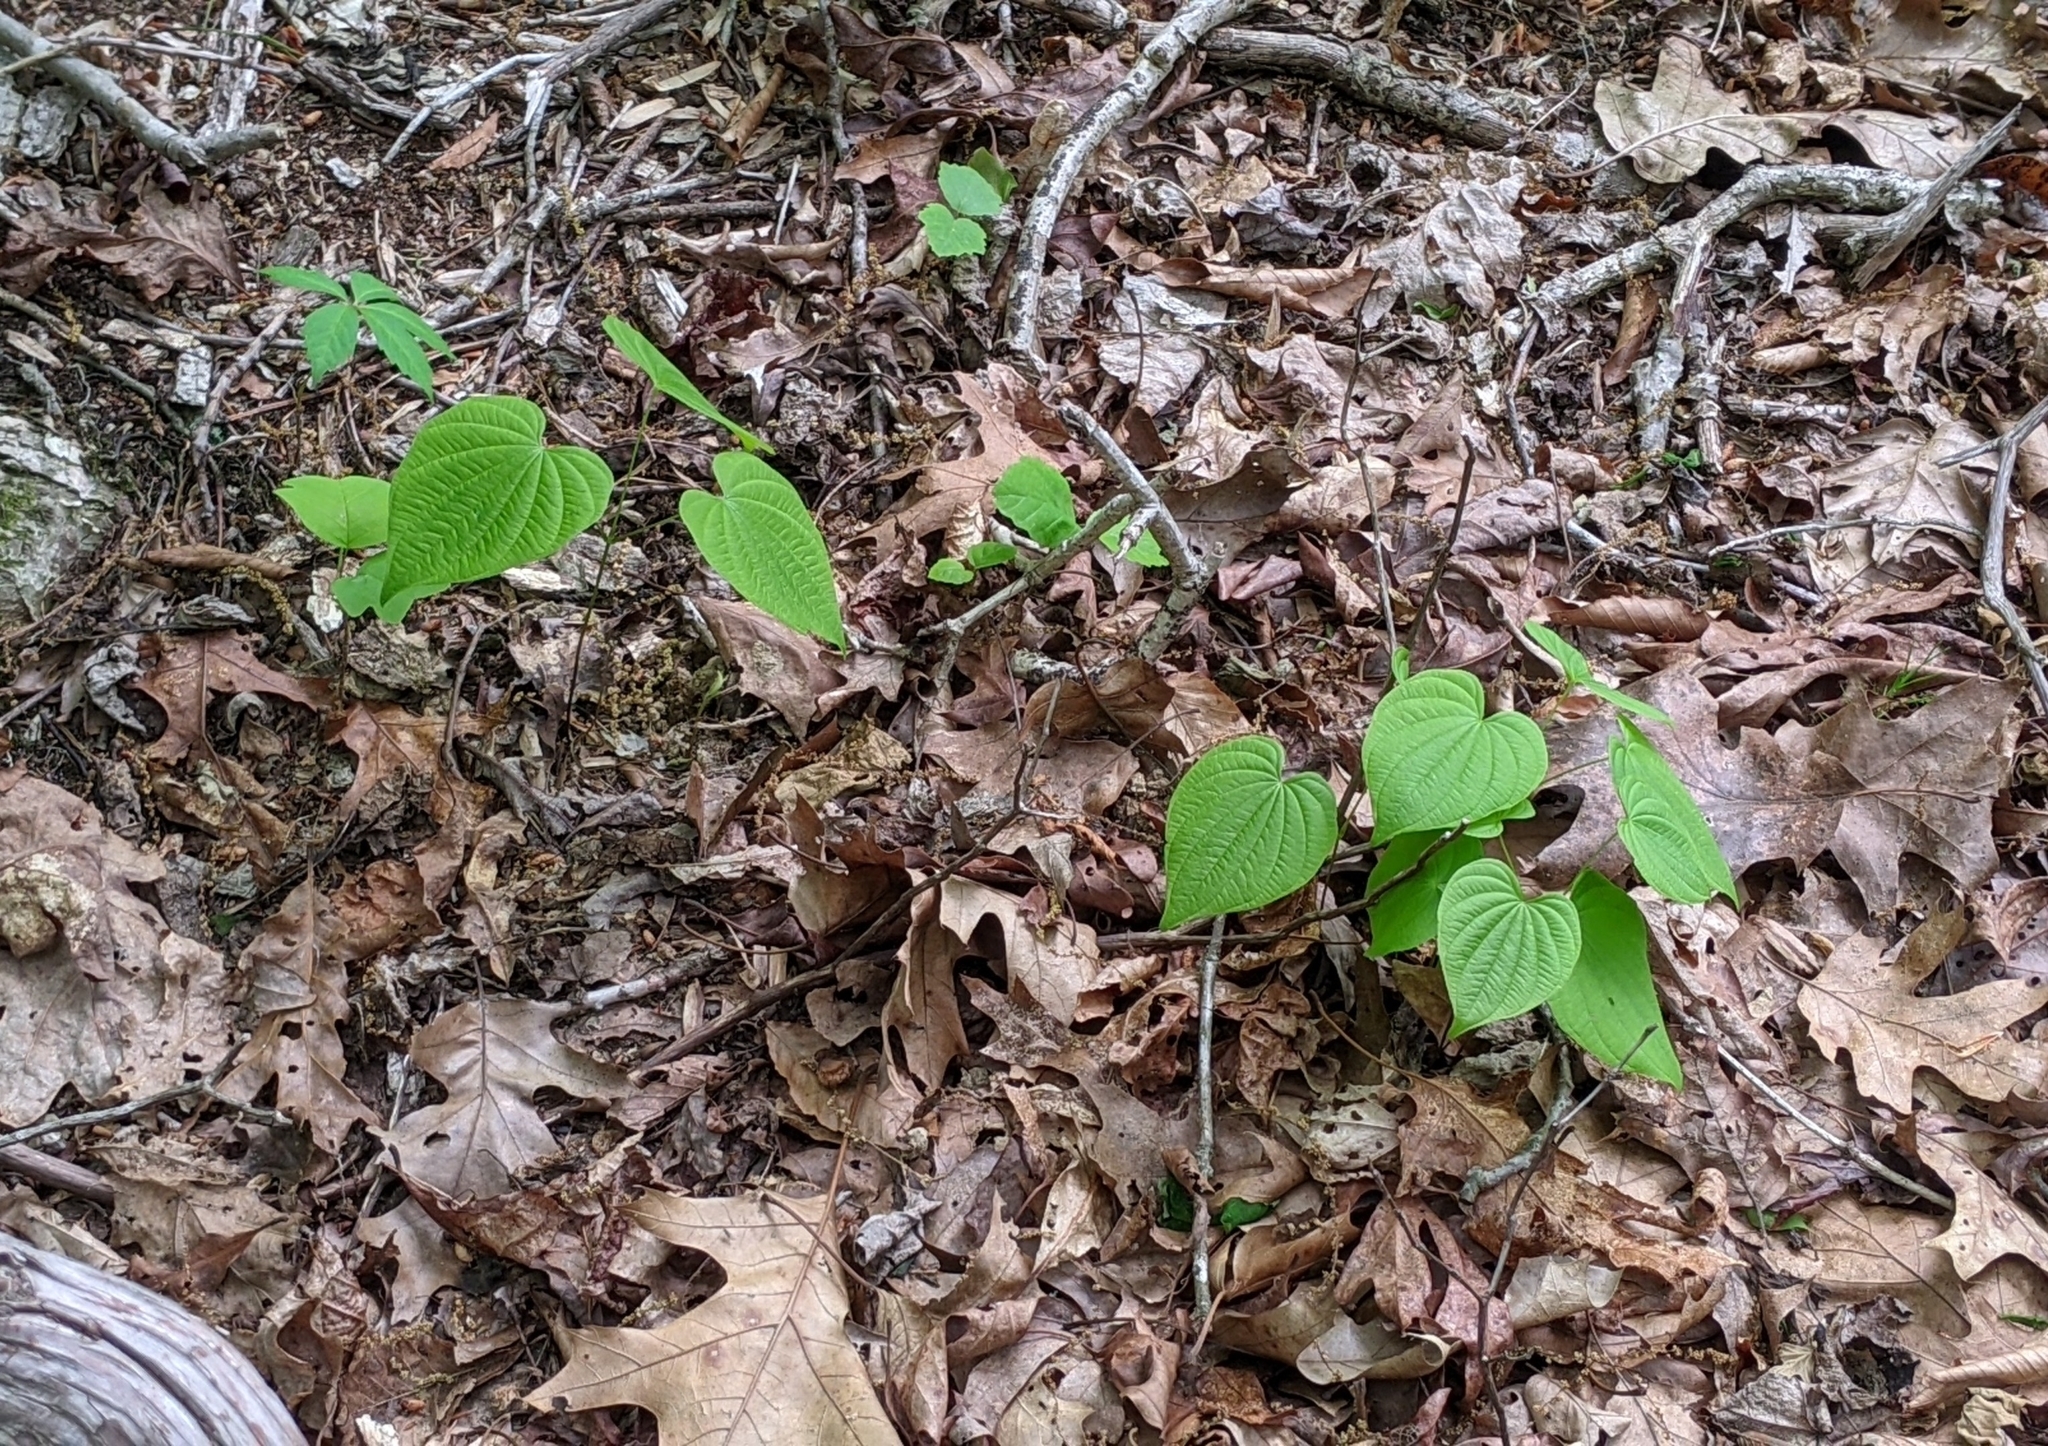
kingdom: Plantae
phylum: Tracheophyta
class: Liliopsida
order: Dioscoreales
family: Dioscoreaceae
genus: Dioscorea
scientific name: Dioscorea villosa
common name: Wild yam
